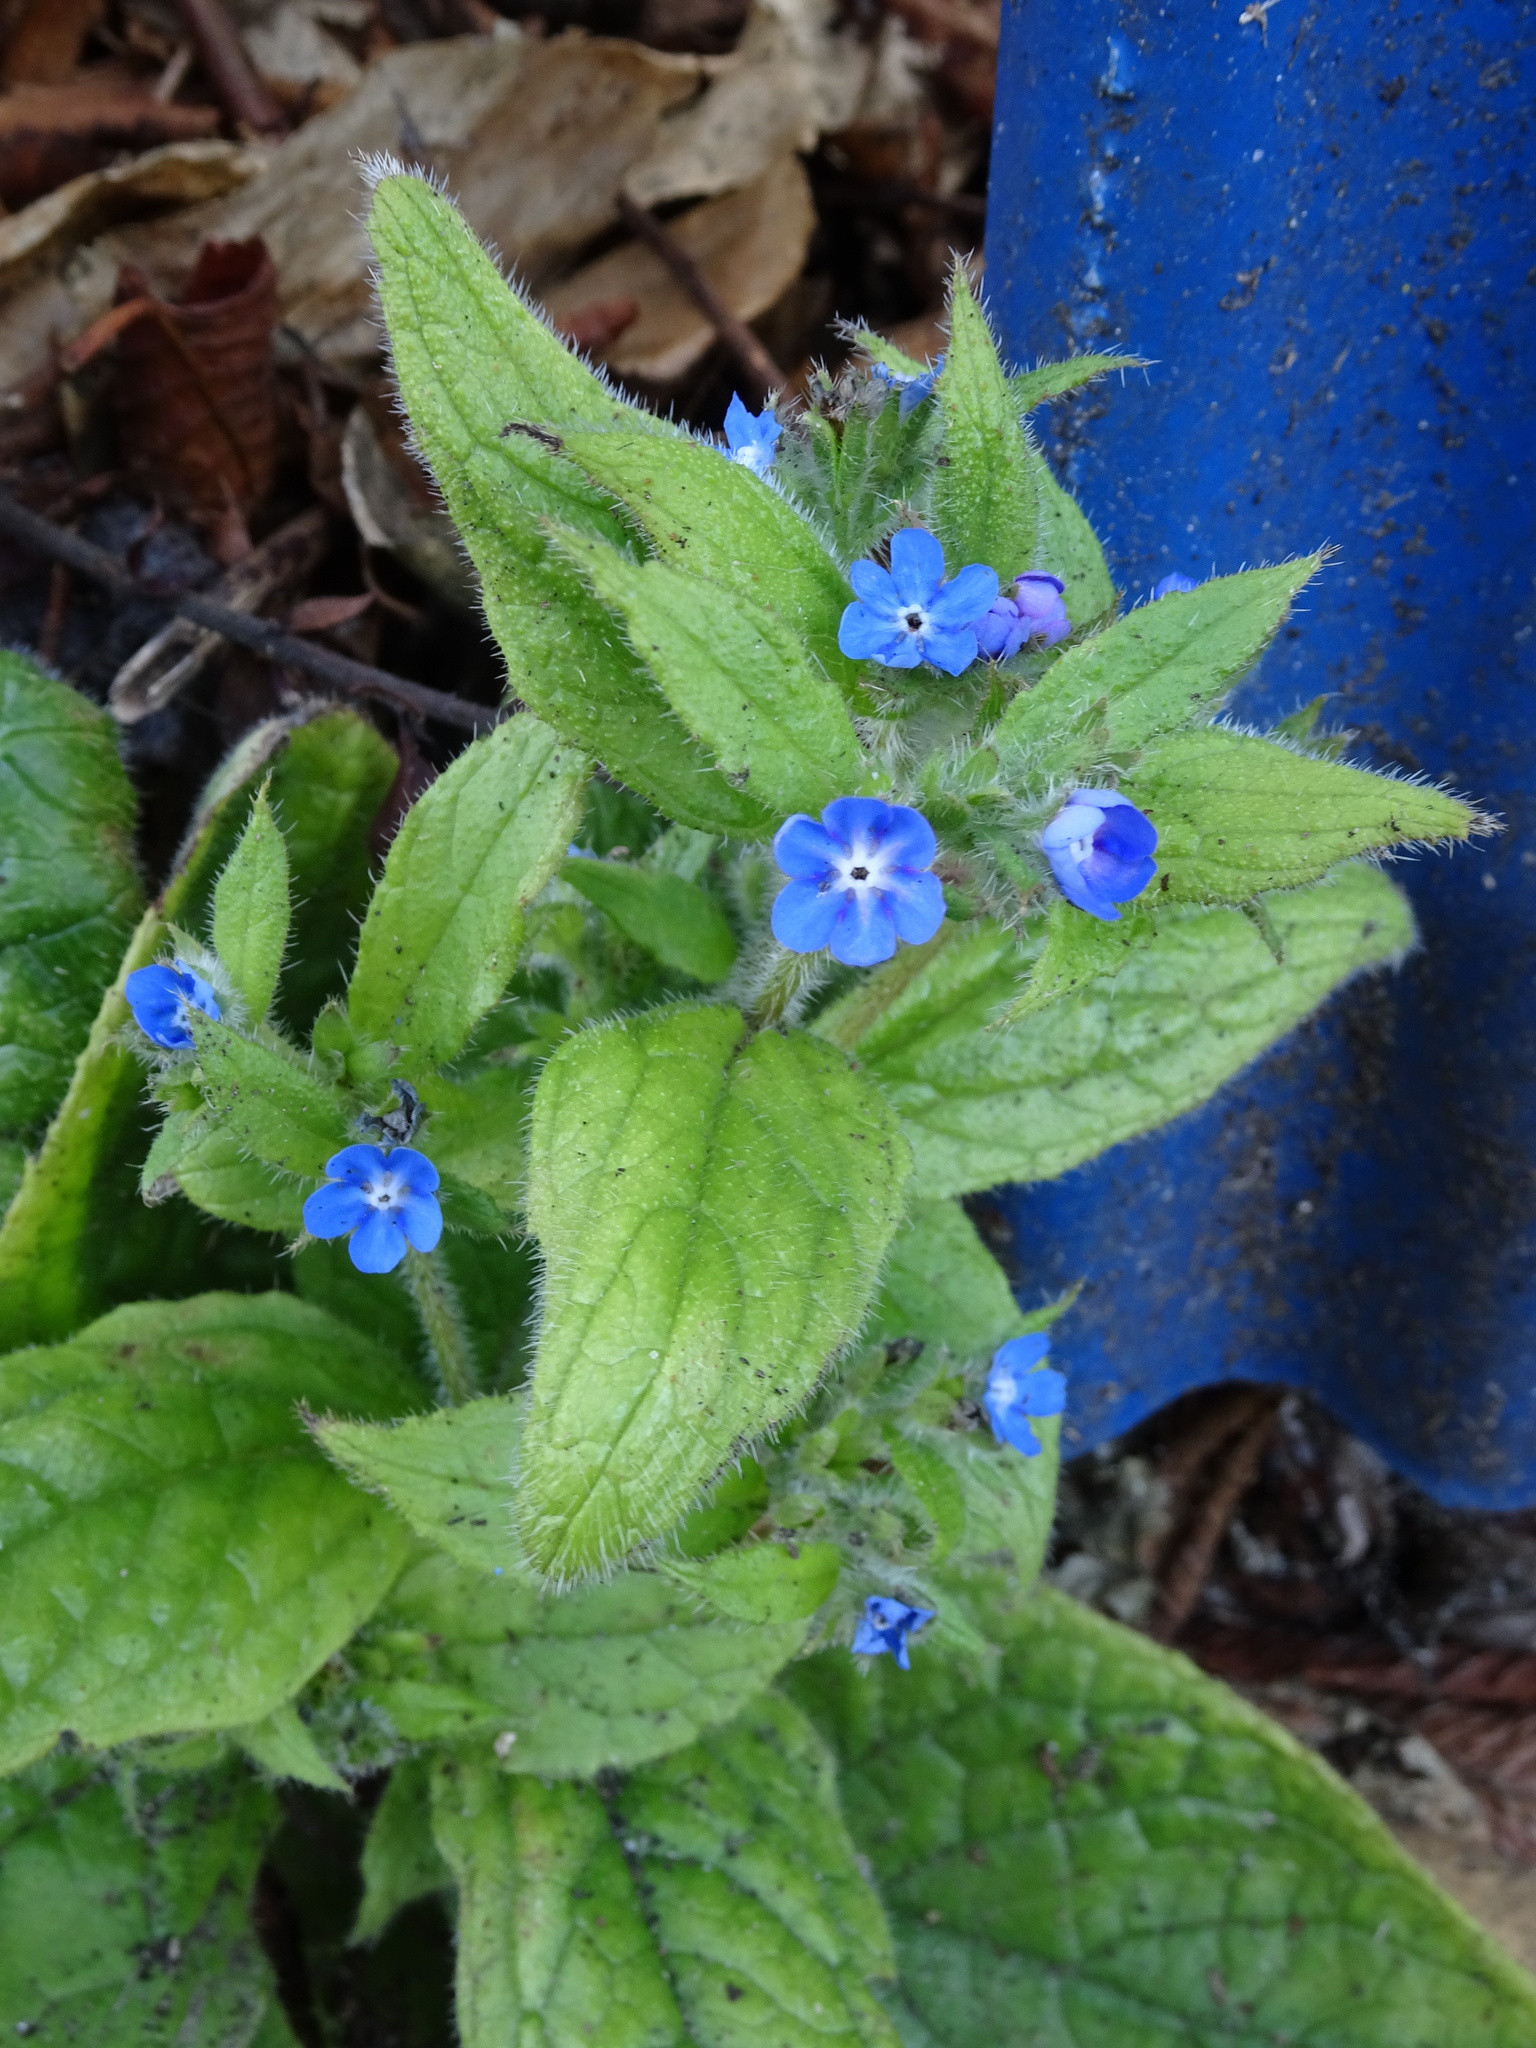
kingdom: Plantae
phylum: Tracheophyta
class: Magnoliopsida
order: Boraginales
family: Boraginaceae
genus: Pentaglottis
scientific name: Pentaglottis sempervirens
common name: Green alkanet
